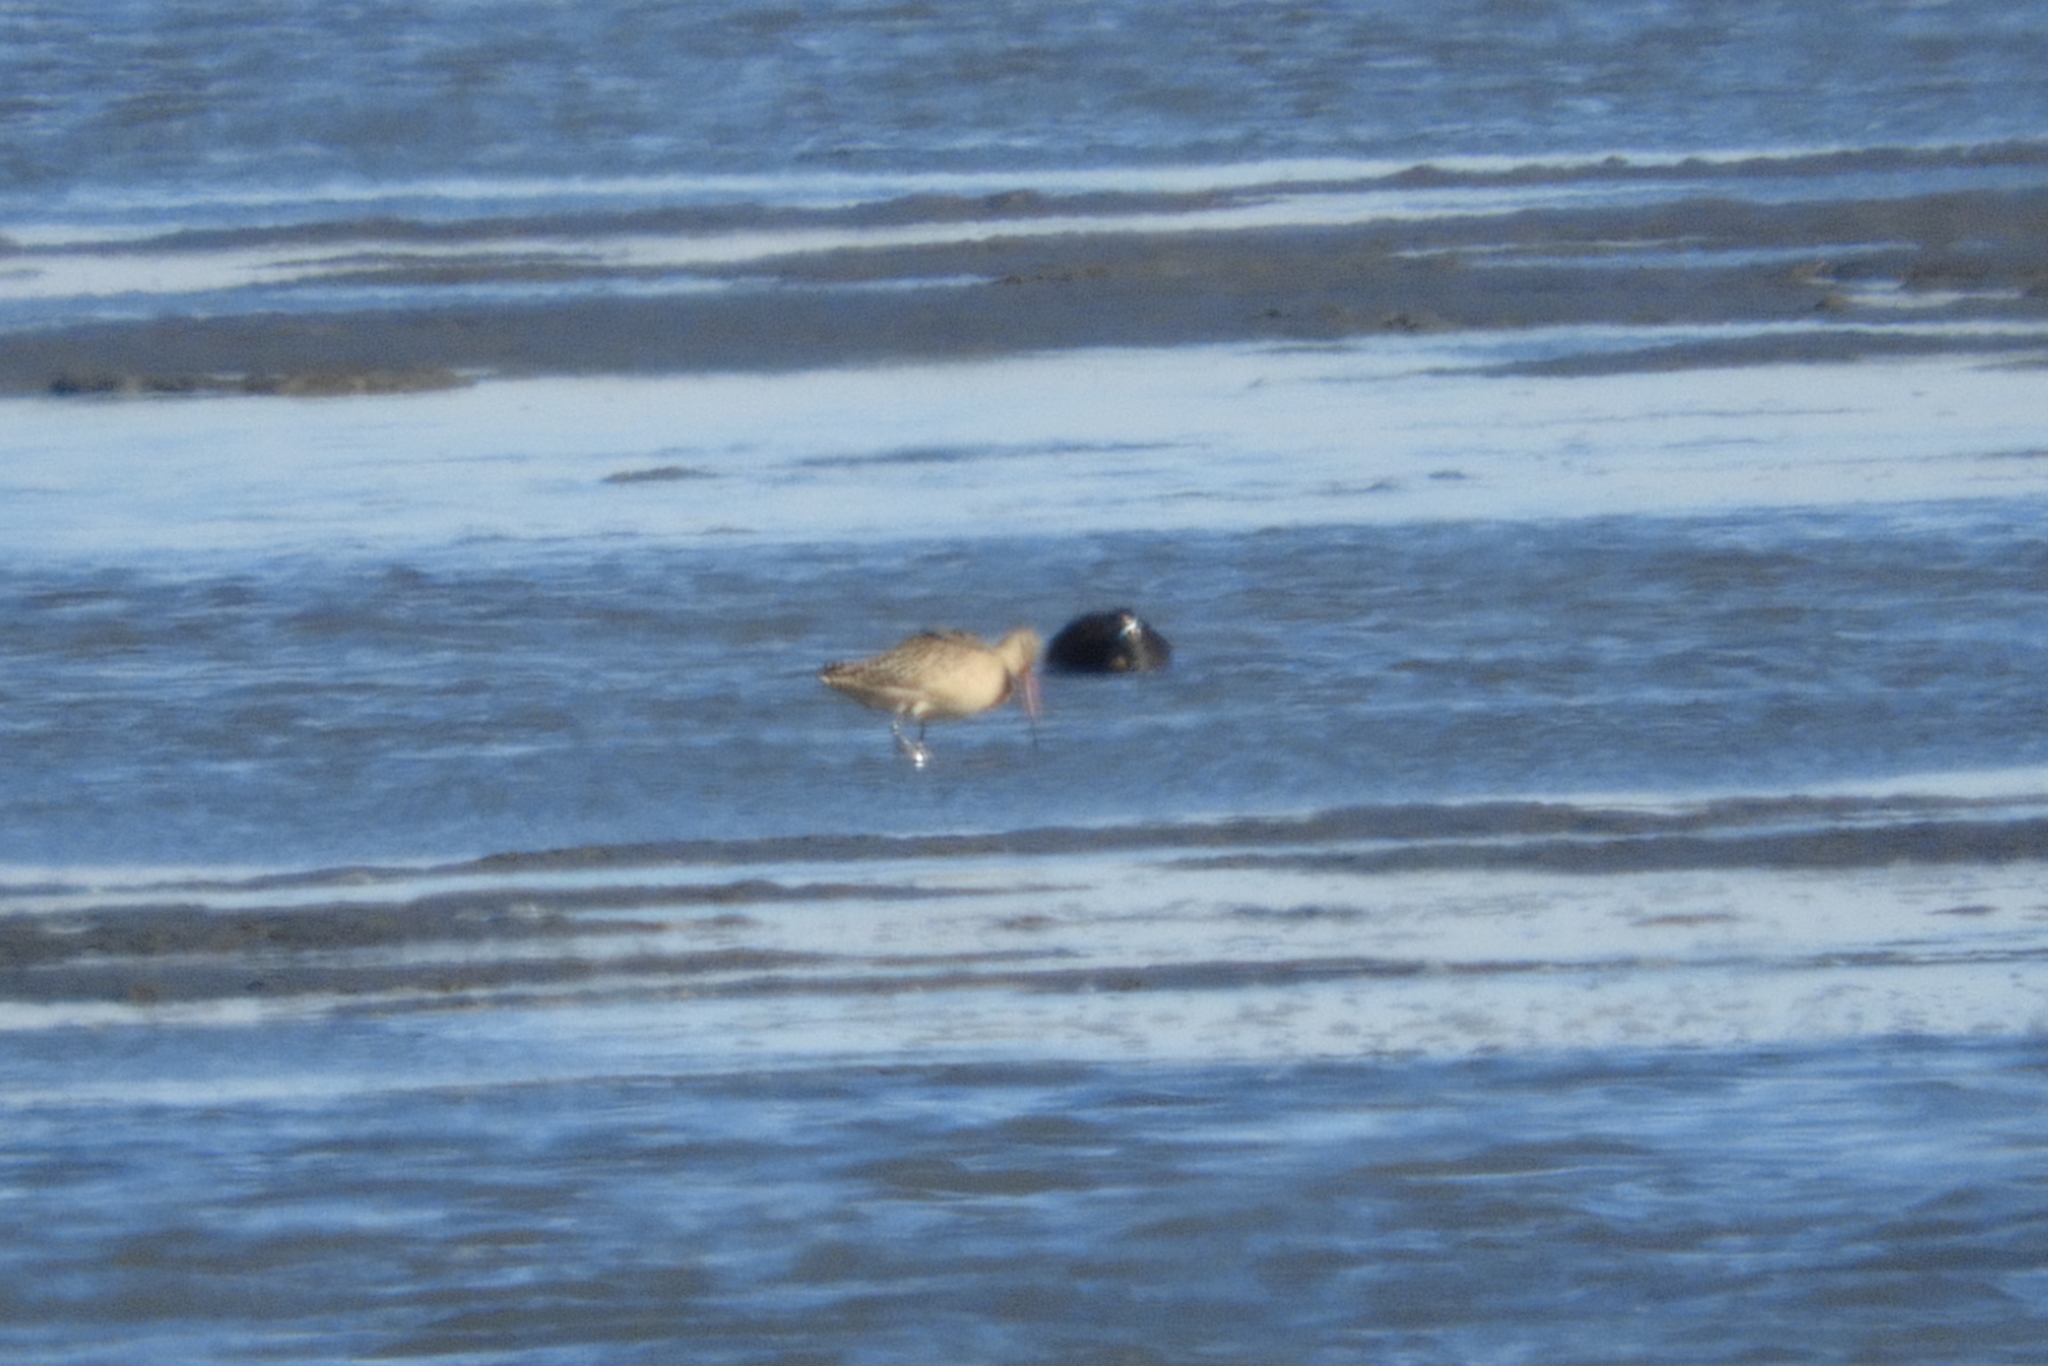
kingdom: Animalia
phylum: Chordata
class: Aves
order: Charadriiformes
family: Scolopacidae
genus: Limosa
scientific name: Limosa fedoa
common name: Marbled godwit
